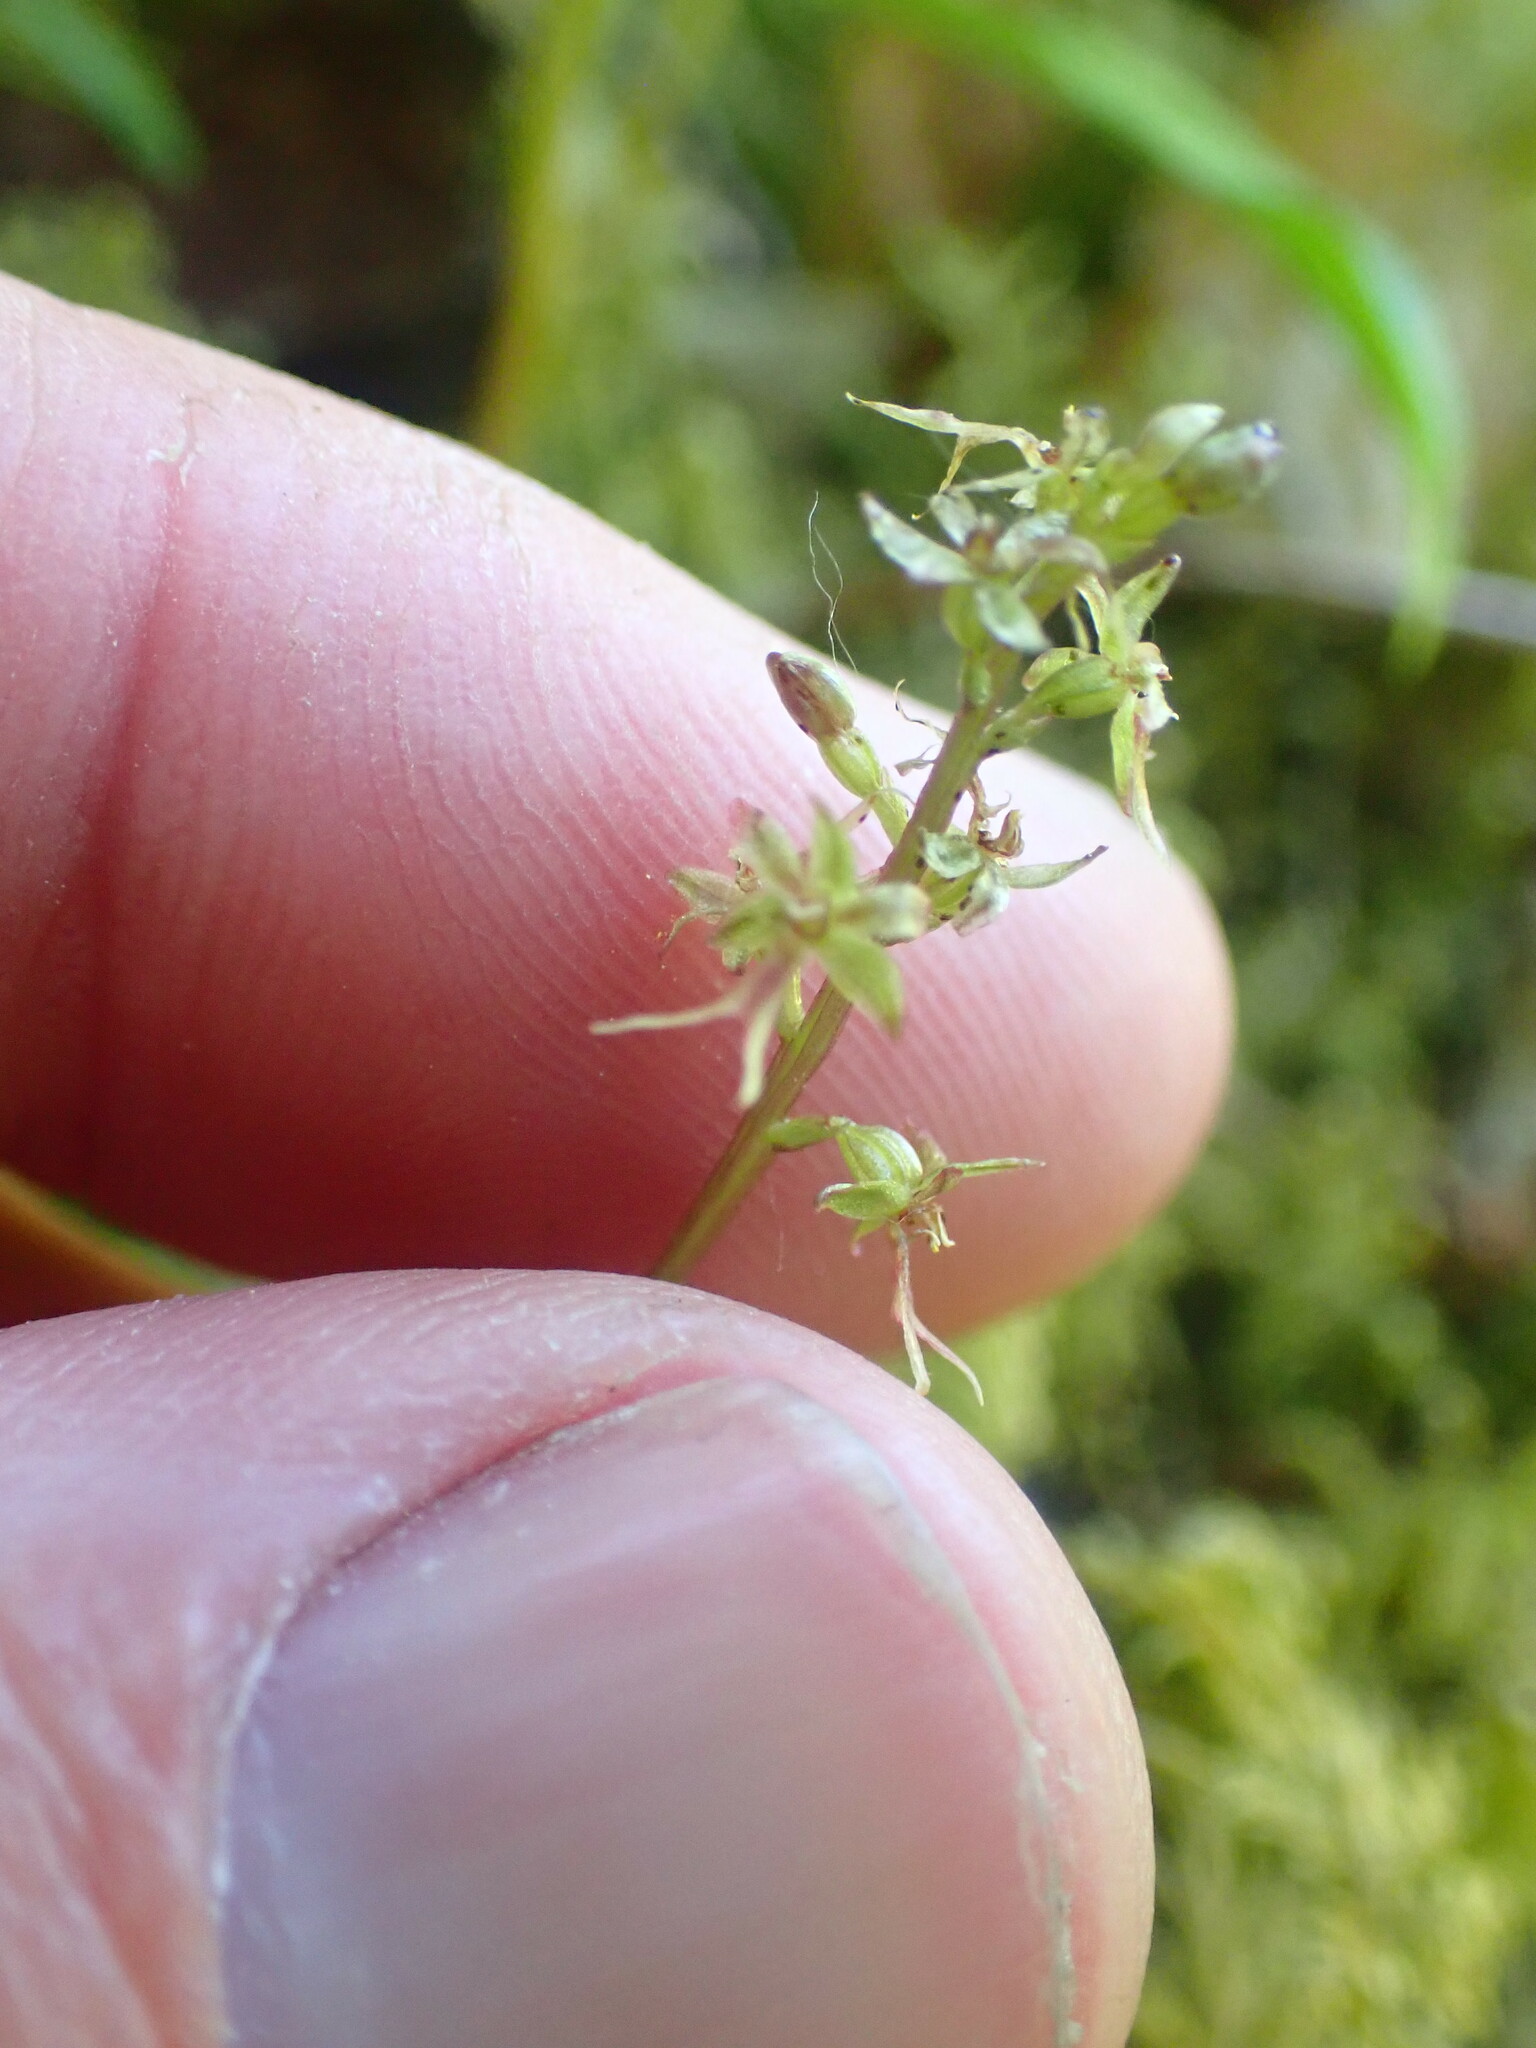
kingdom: Plantae
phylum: Tracheophyta
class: Liliopsida
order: Asparagales
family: Orchidaceae
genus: Neottia
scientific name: Neottia cordata
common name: Lesser twayblade
